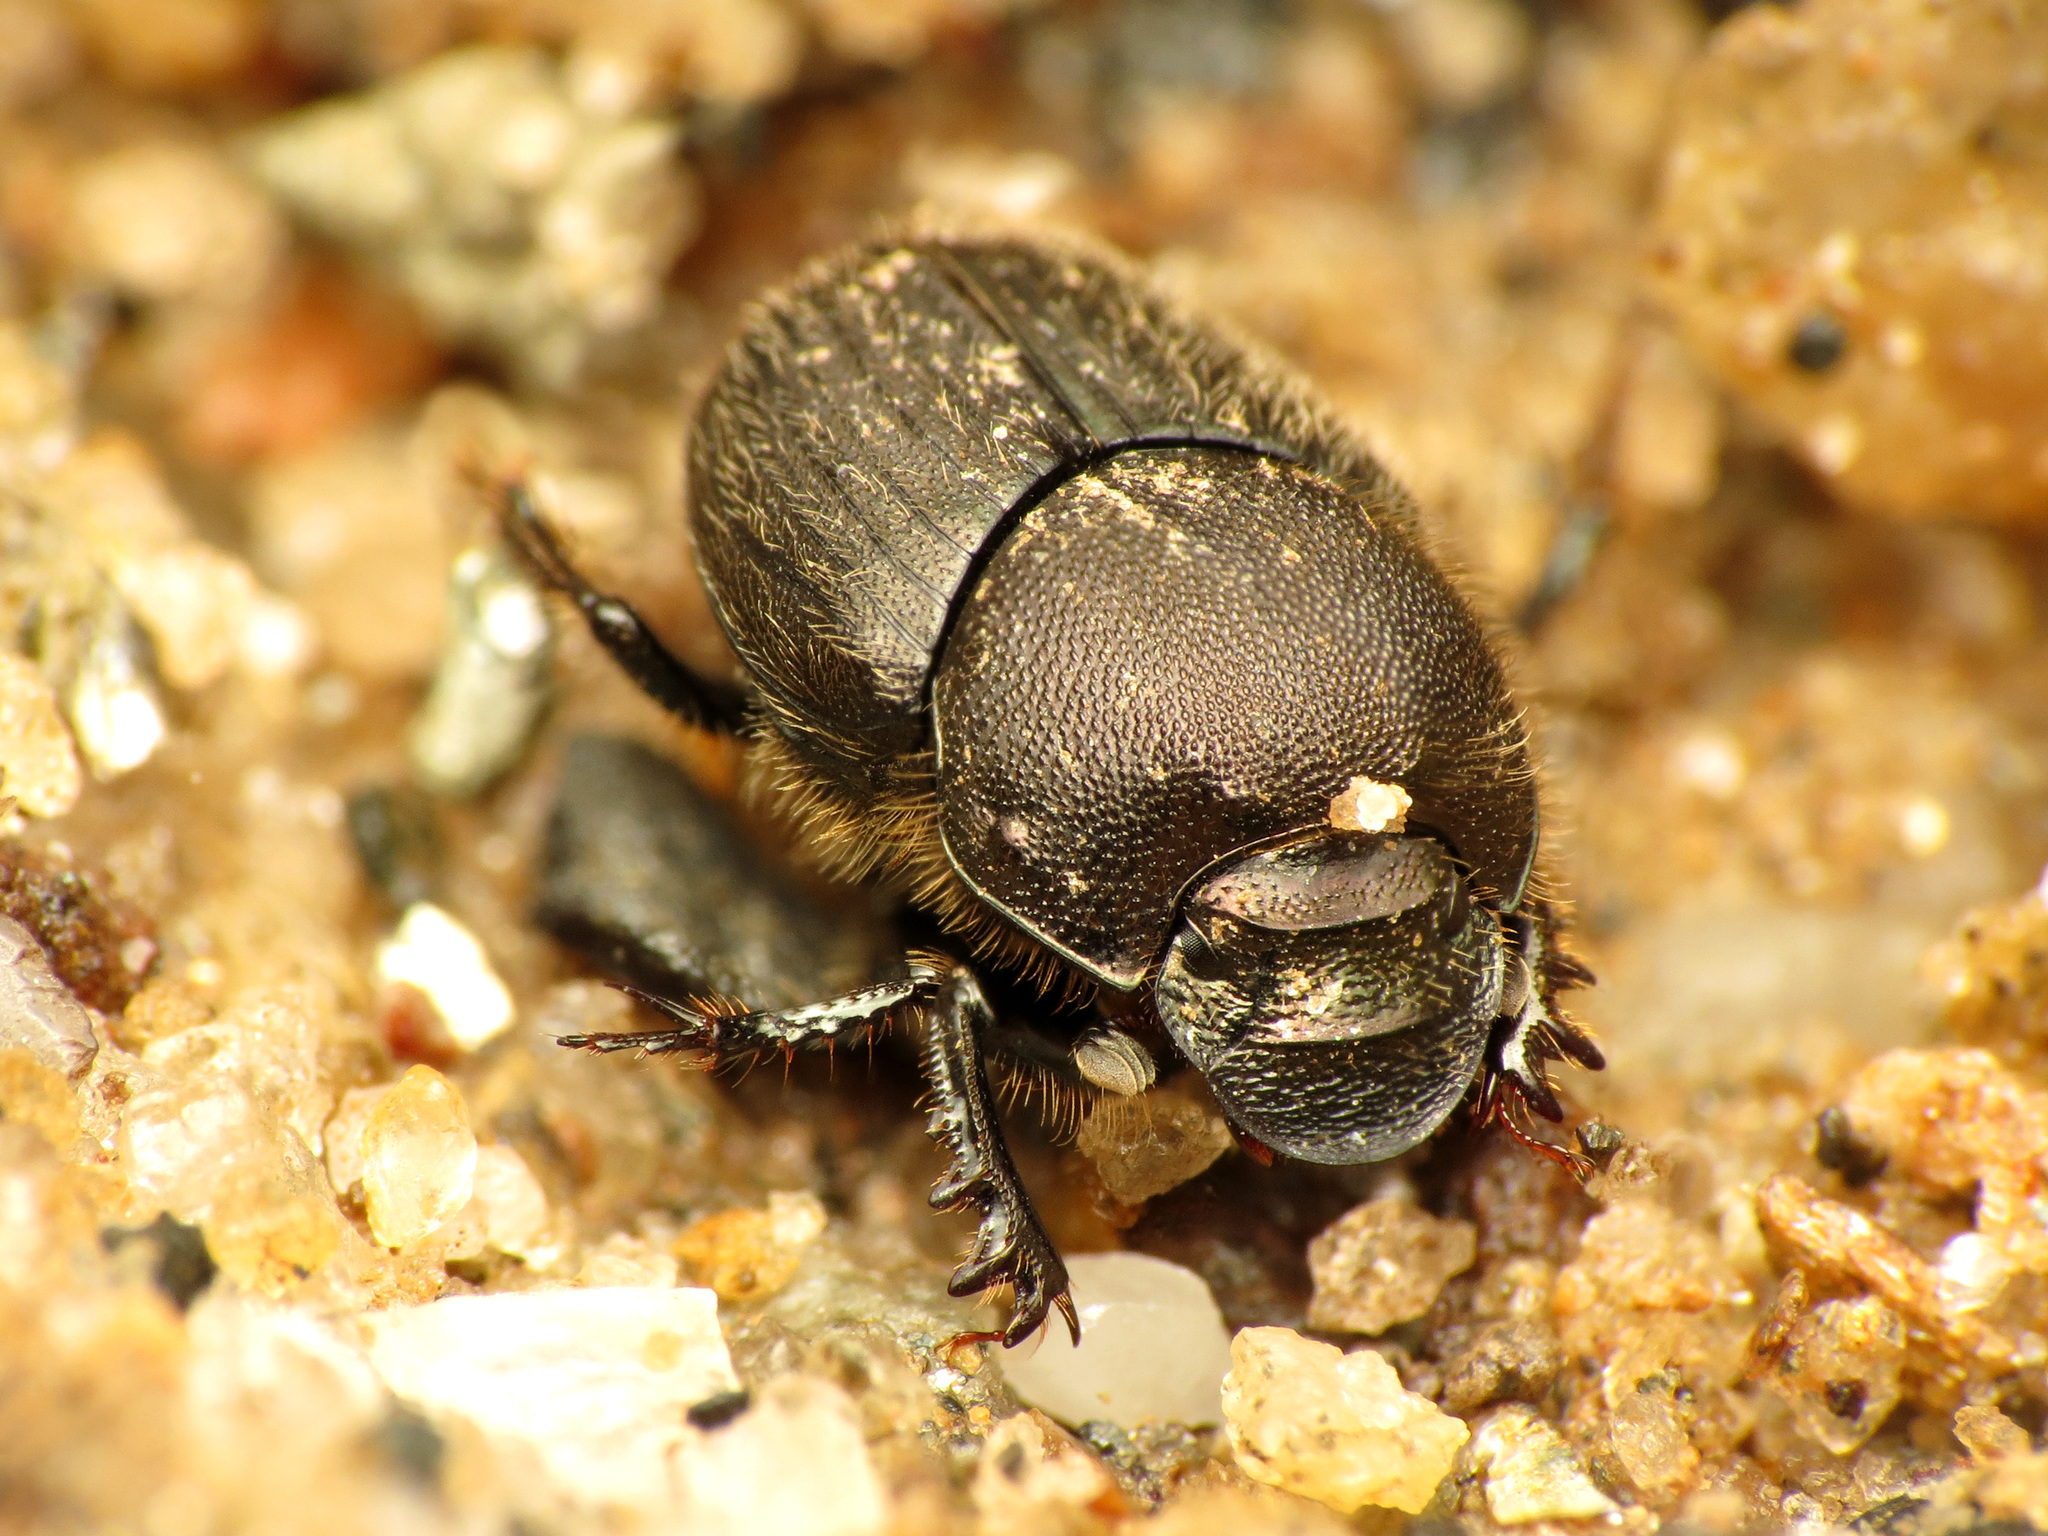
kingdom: Animalia
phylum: Arthropoda
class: Insecta
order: Coleoptera
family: Scarabaeidae
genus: Onthophagus
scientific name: Onthophagus hecate
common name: Scooped scarab
